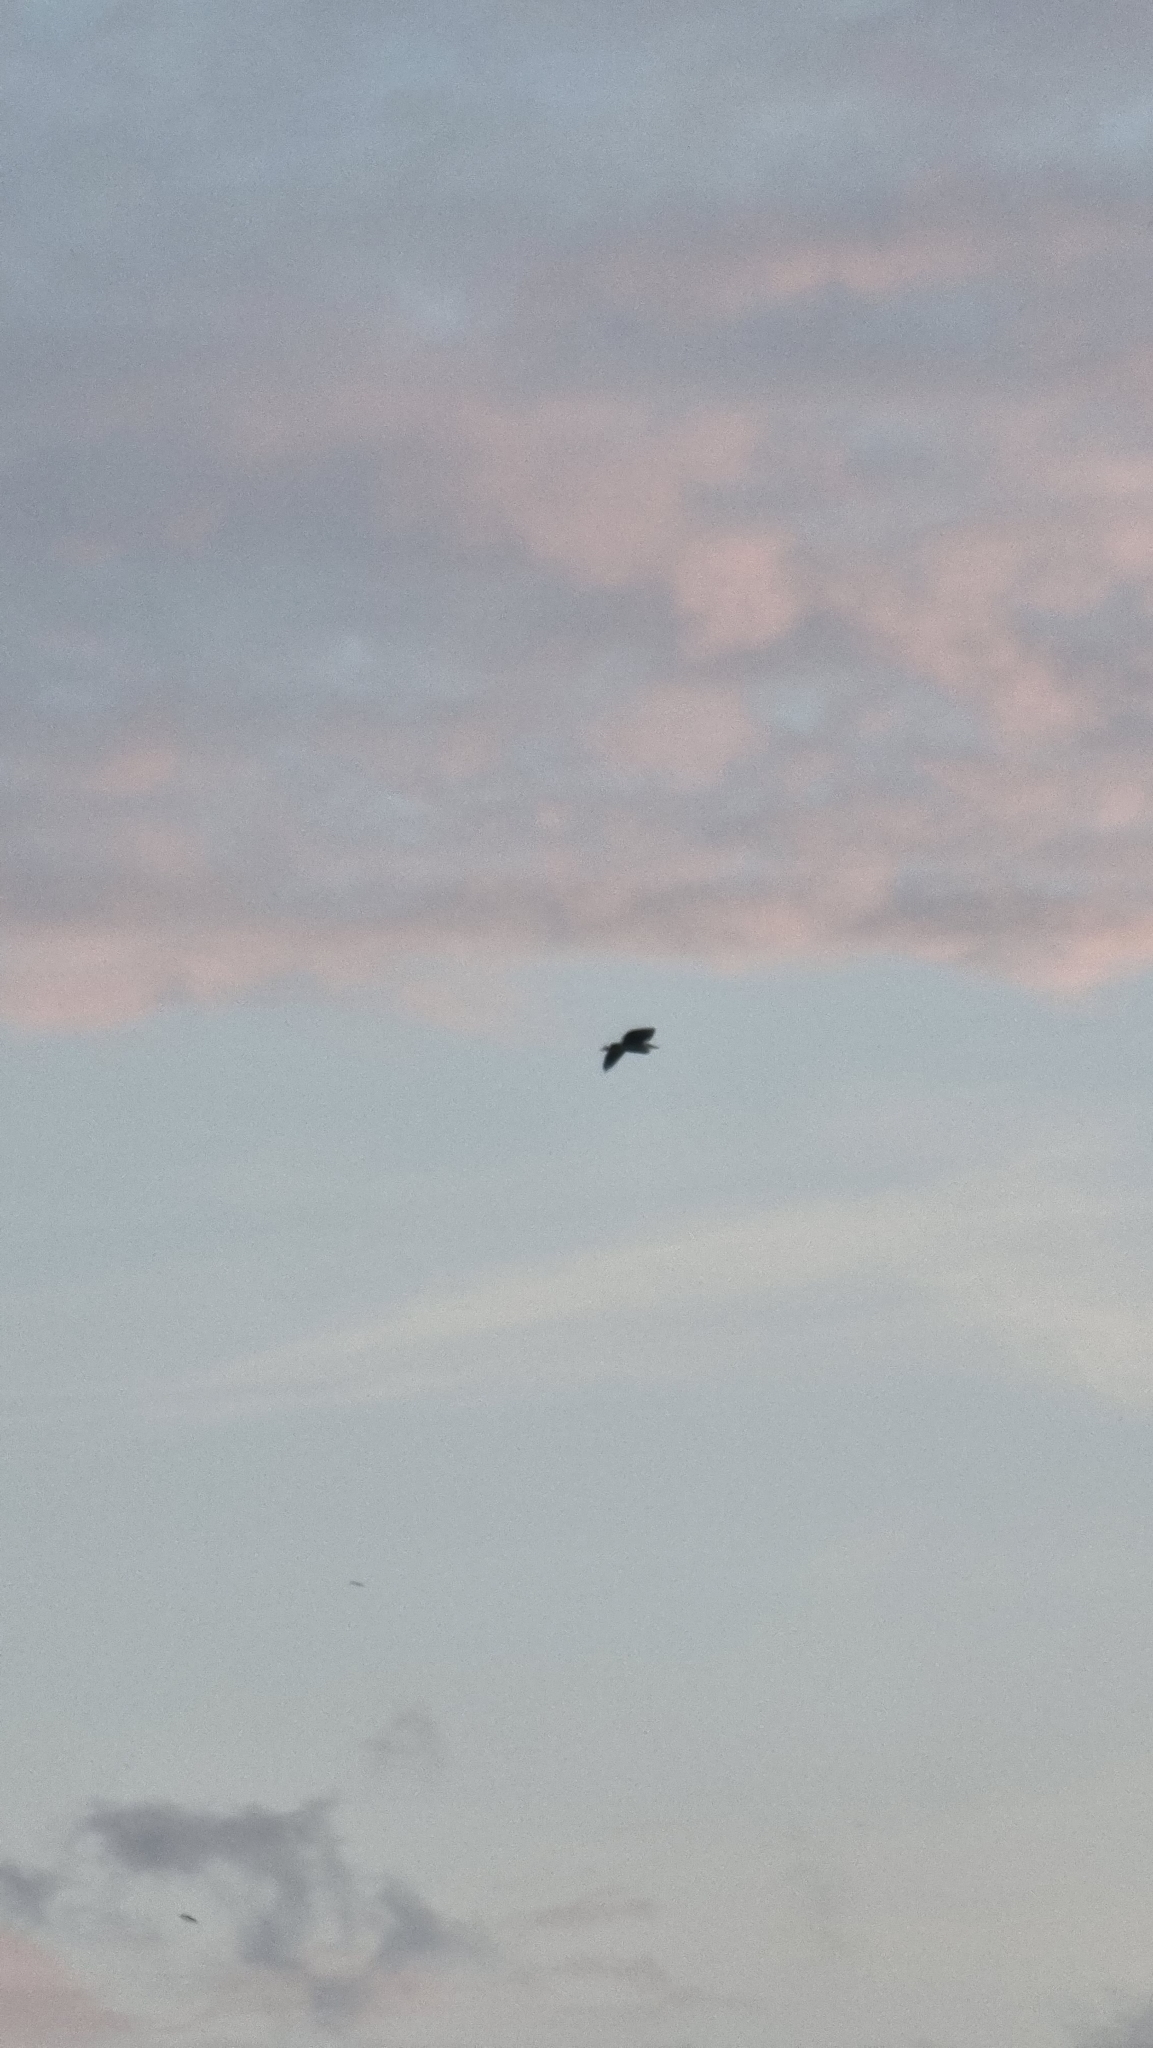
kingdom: Animalia
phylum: Chordata
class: Aves
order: Pelecaniformes
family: Ardeidae
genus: Ardea
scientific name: Ardea cinerea
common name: Grey heron
